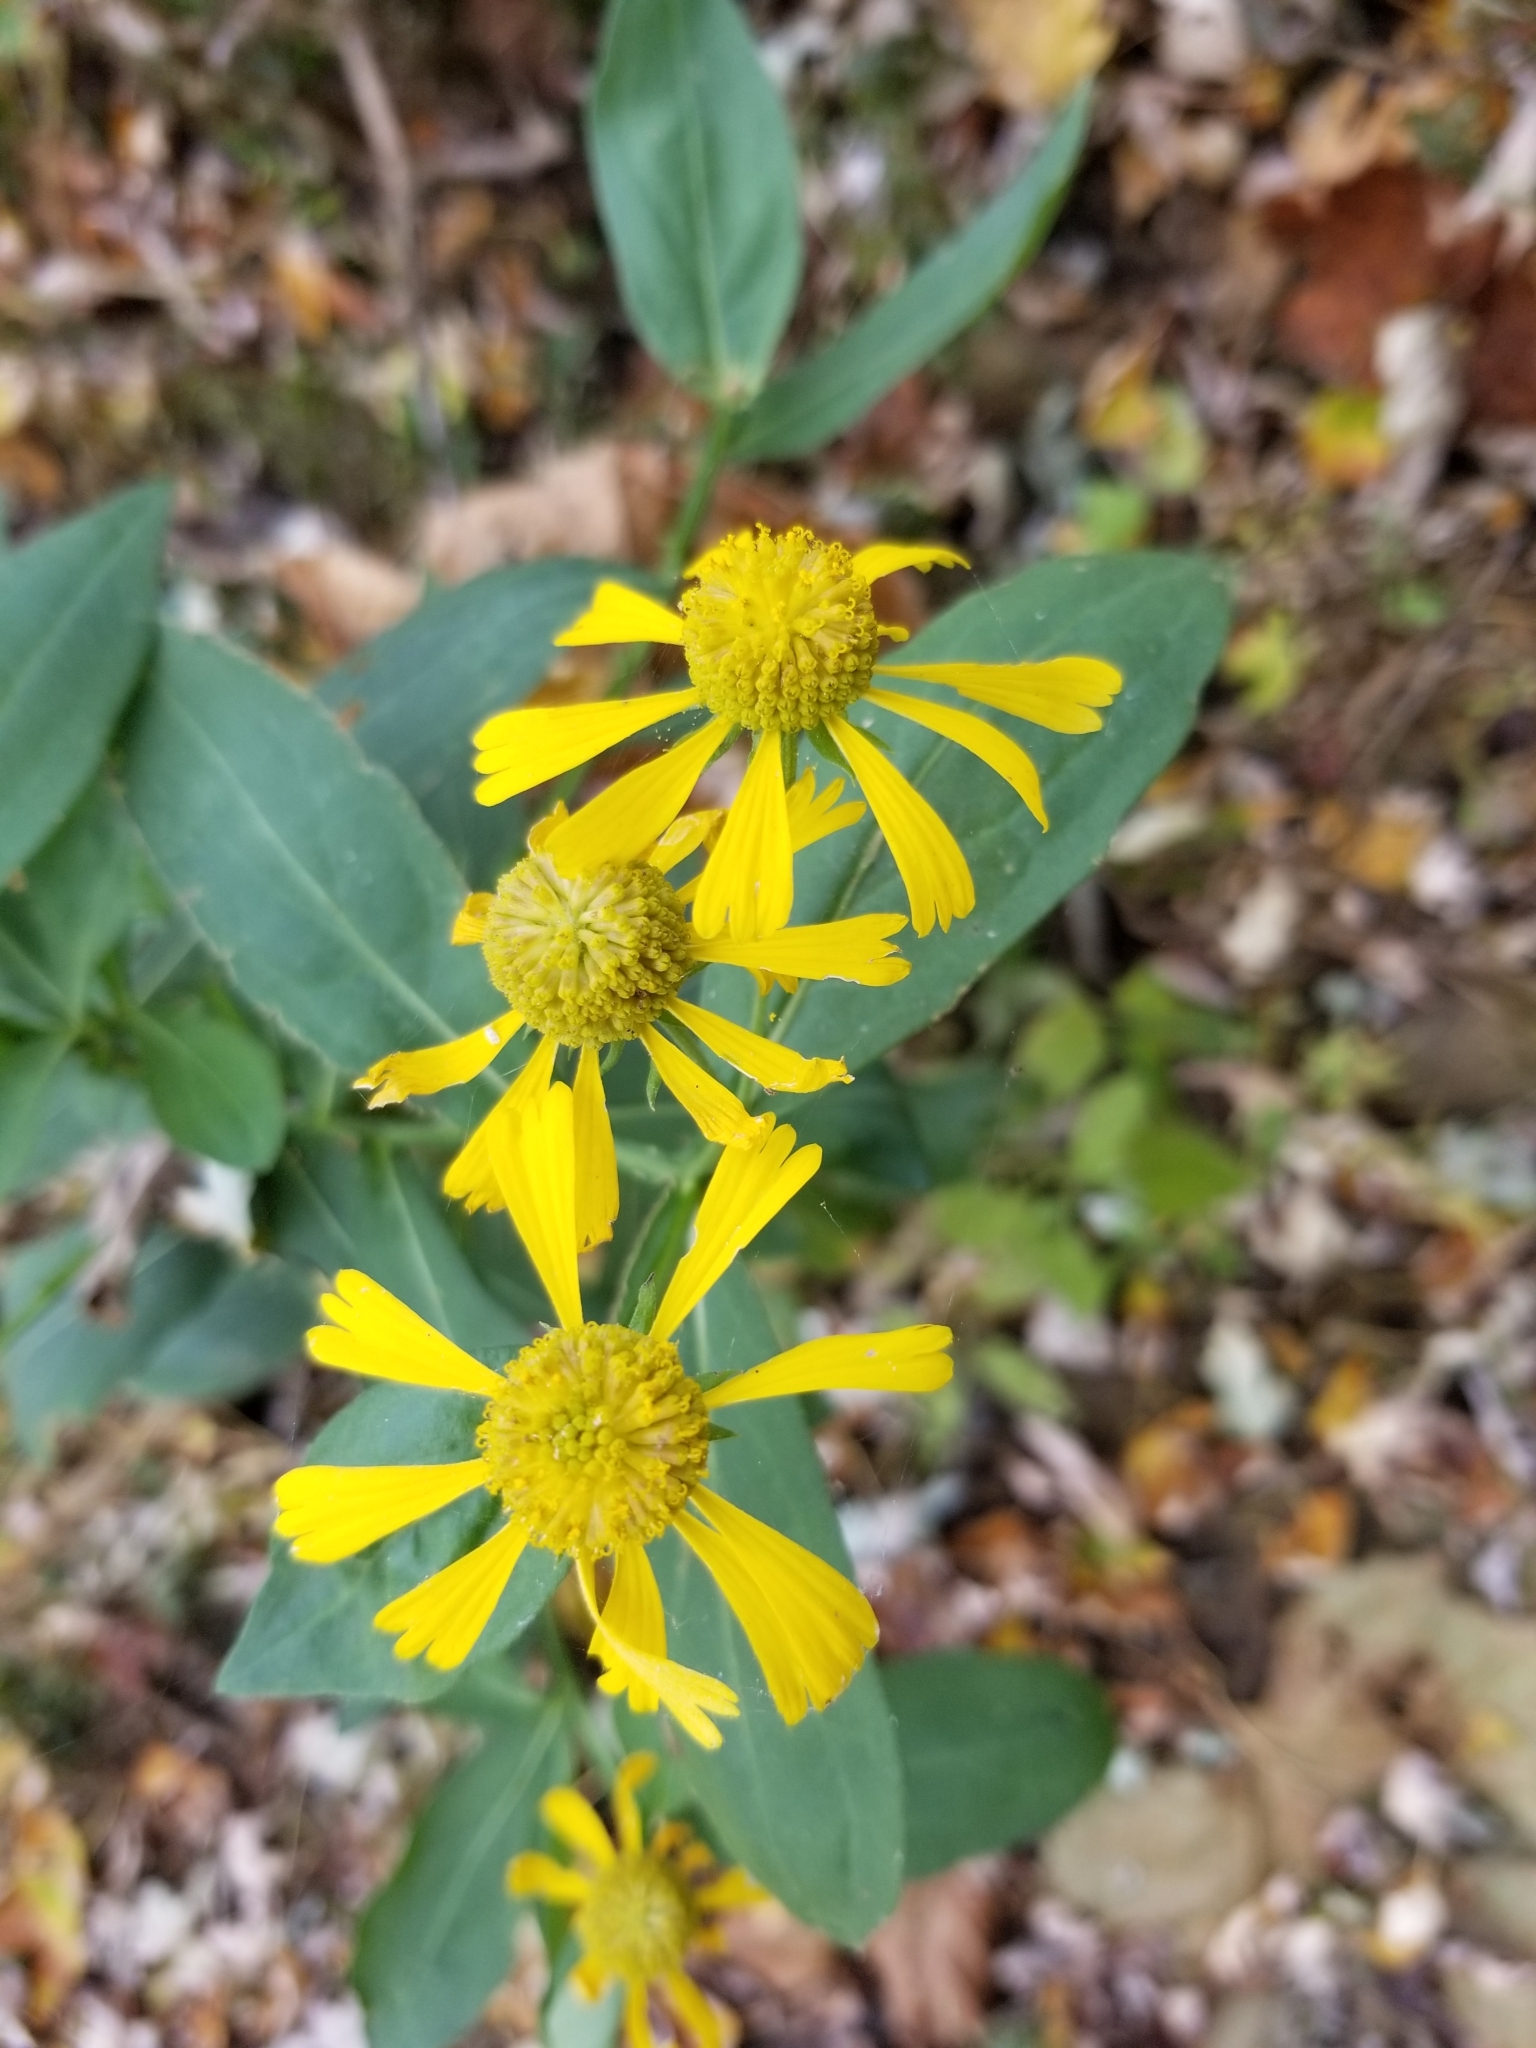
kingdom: Plantae
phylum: Tracheophyta
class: Magnoliopsida
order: Asterales
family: Asteraceae
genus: Helenium
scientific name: Helenium autumnale
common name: Sneezeweed
